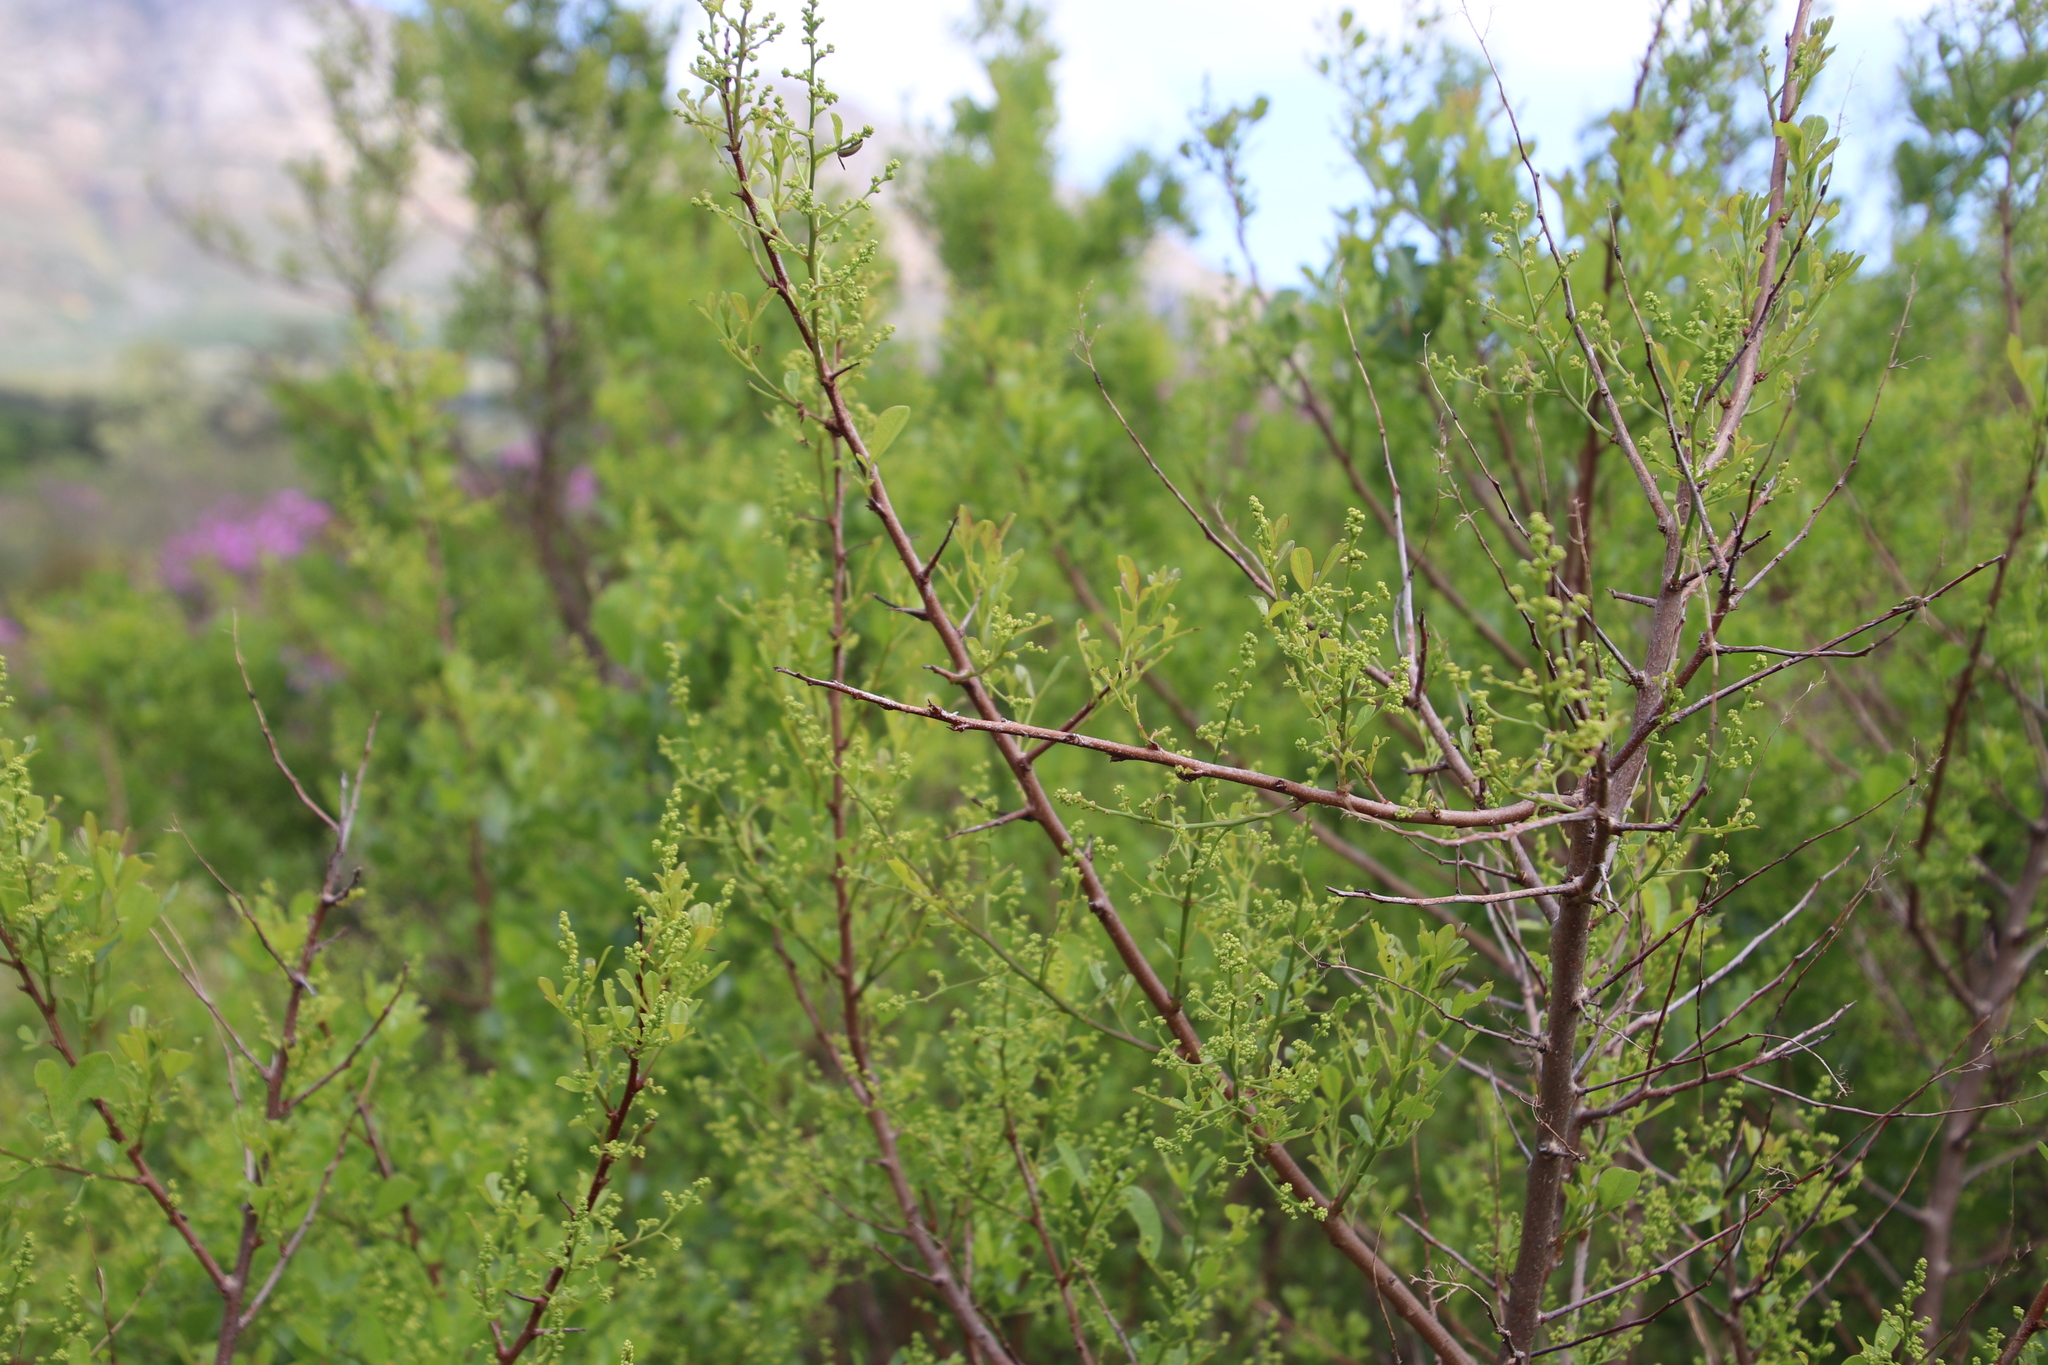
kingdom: Plantae
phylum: Tracheophyta
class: Magnoliopsida
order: Sapindales
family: Anacardiaceae
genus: Searsia
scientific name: Searsia laevigata
